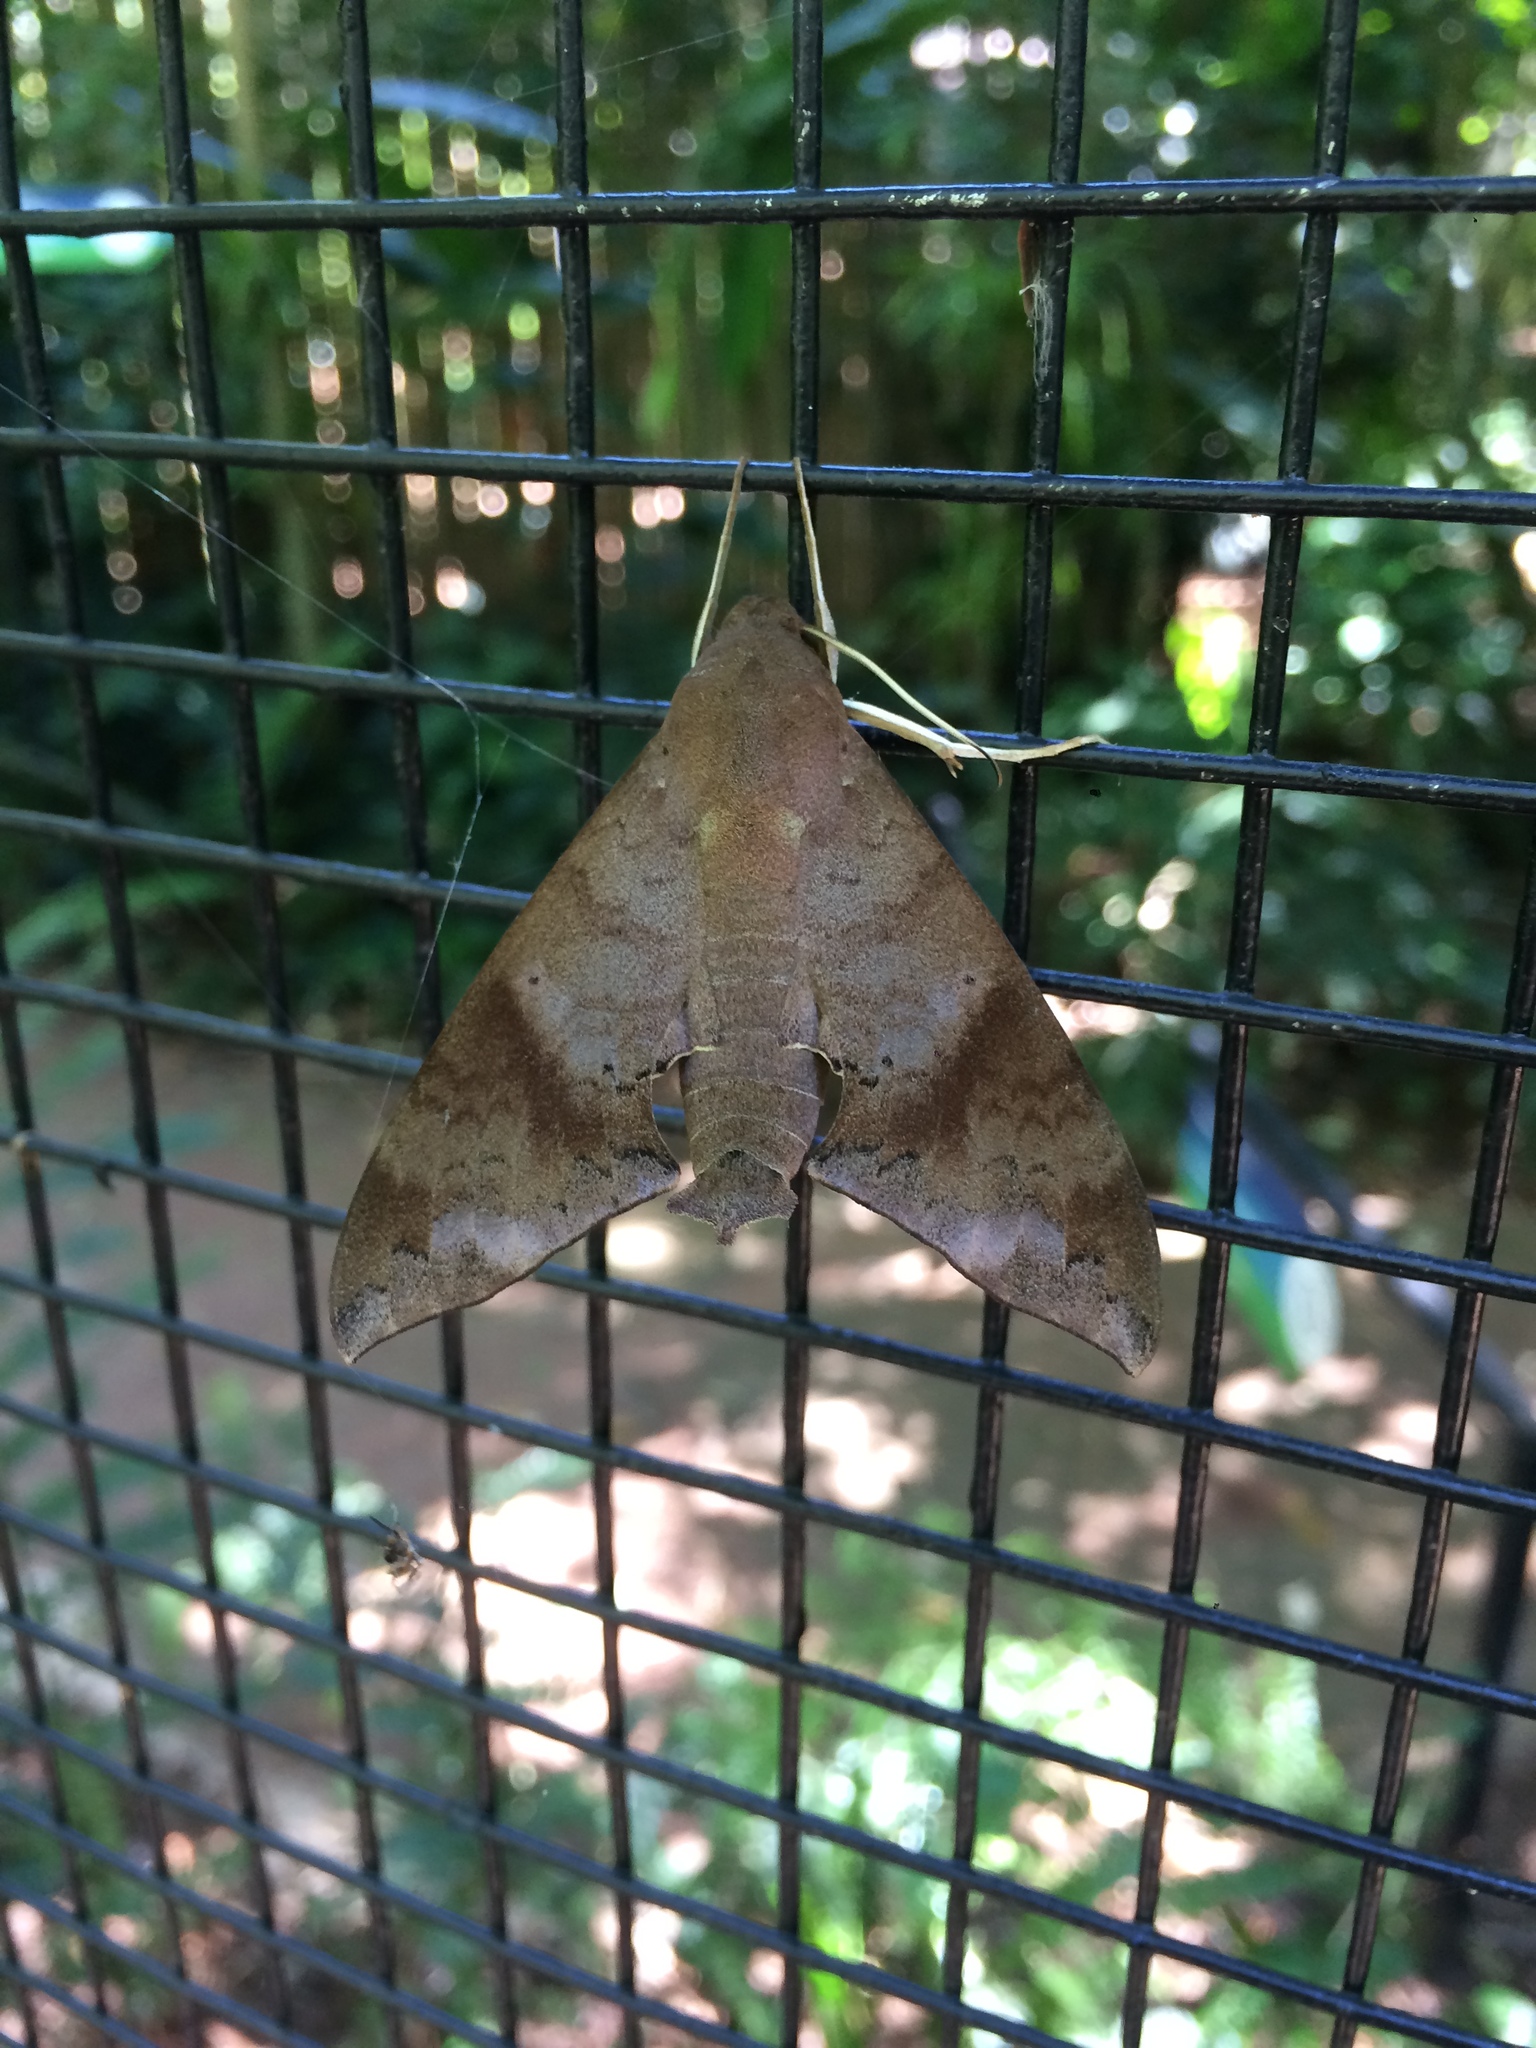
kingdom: Animalia
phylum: Arthropoda
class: Insecta
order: Lepidoptera
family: Sphingidae
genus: Pachylioides
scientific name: Pachylioides resumens
